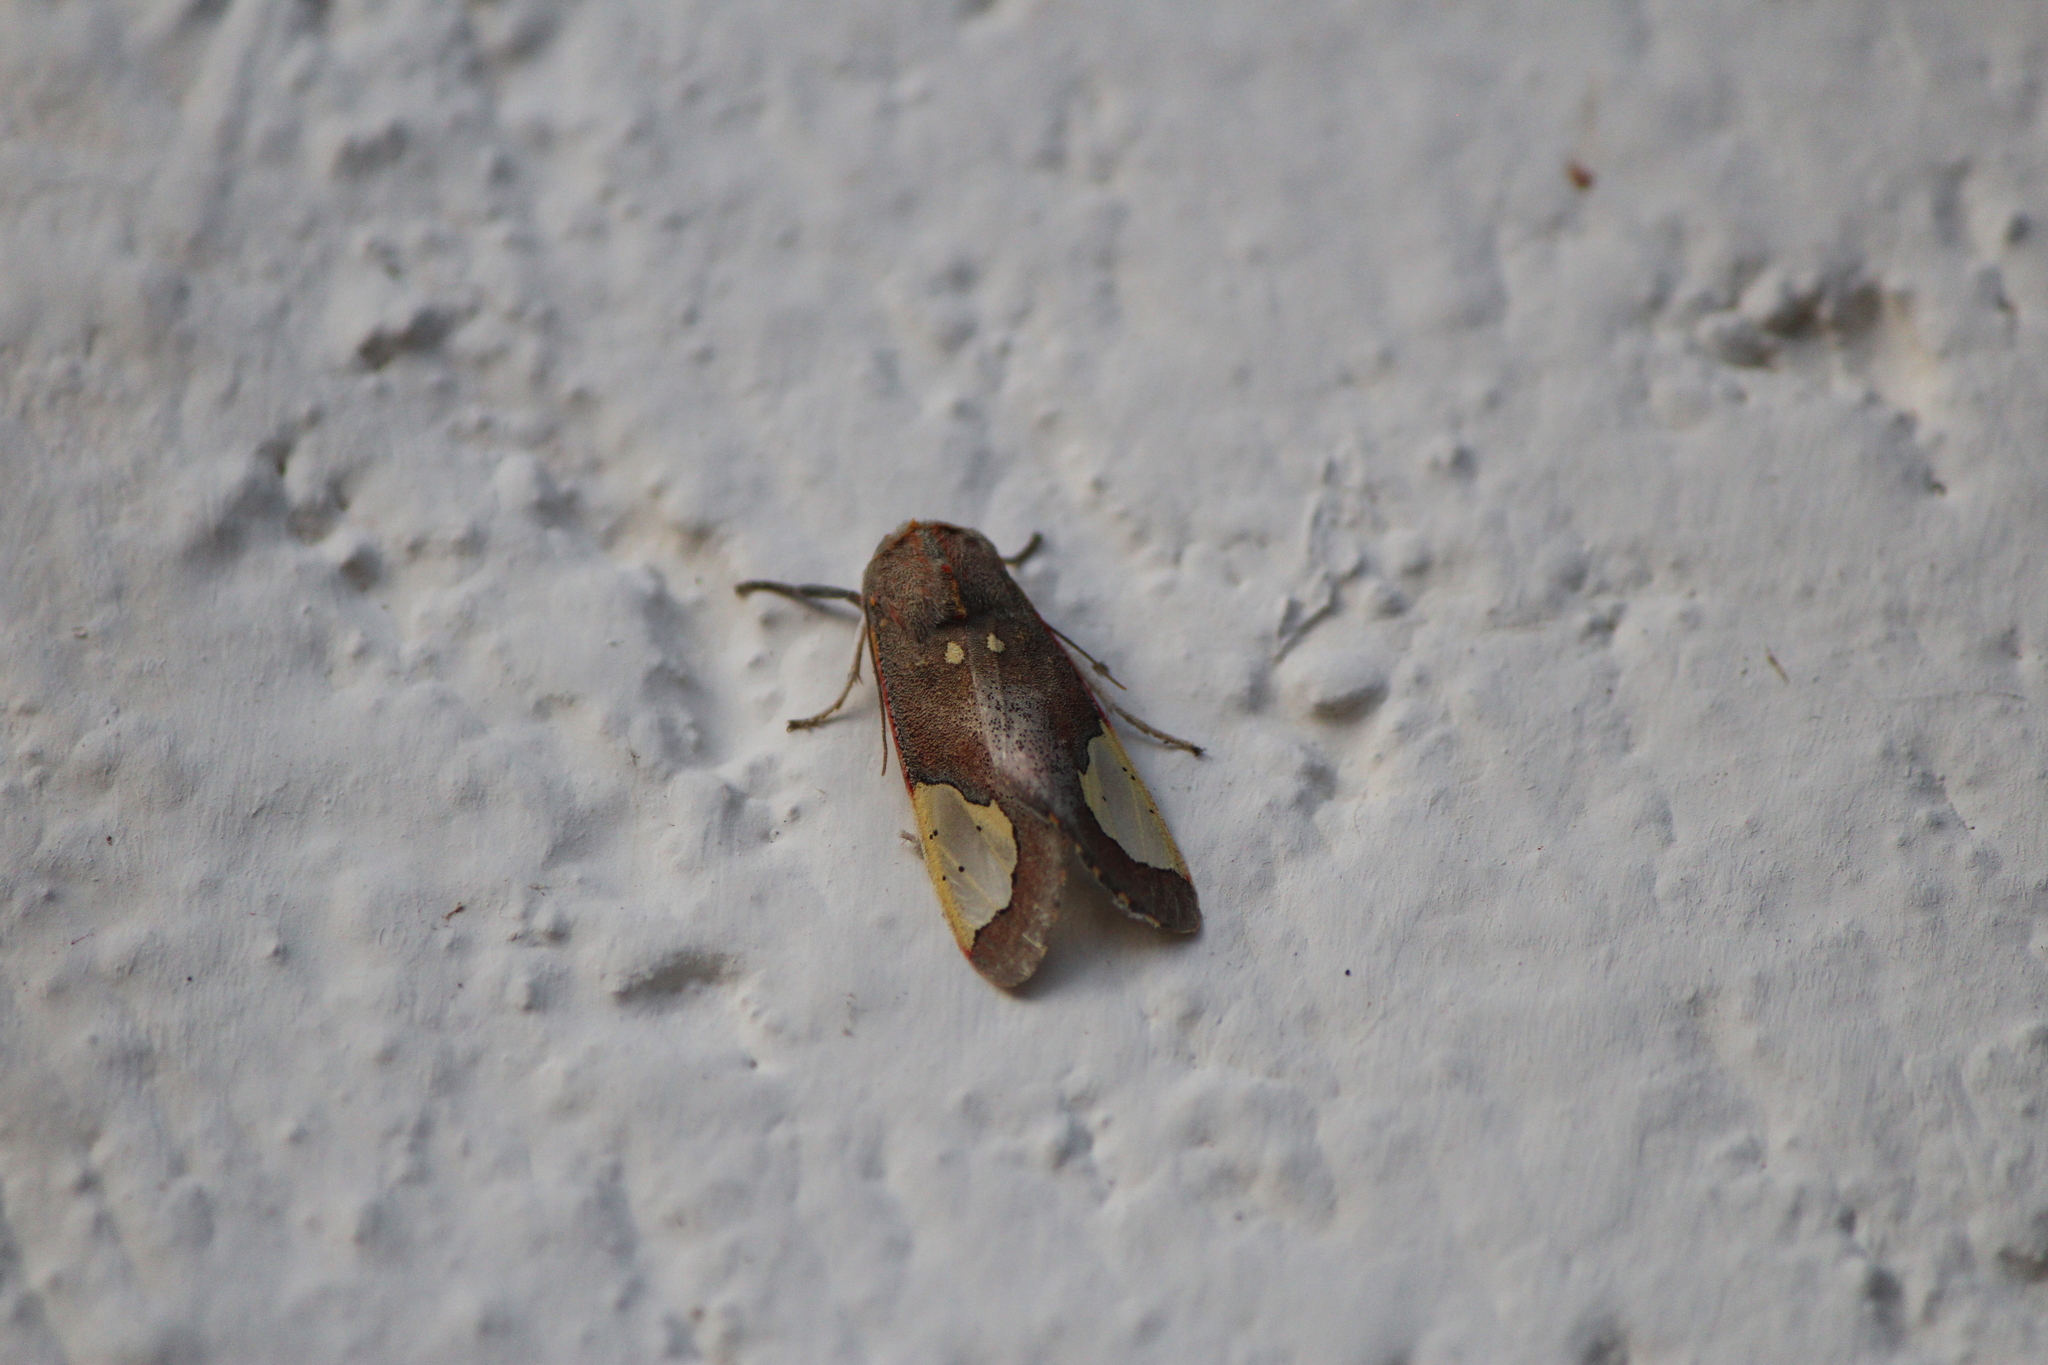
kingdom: Animalia
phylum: Arthropoda
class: Insecta
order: Lepidoptera
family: Erebidae
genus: Bertholdia
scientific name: Bertholdia specularis
